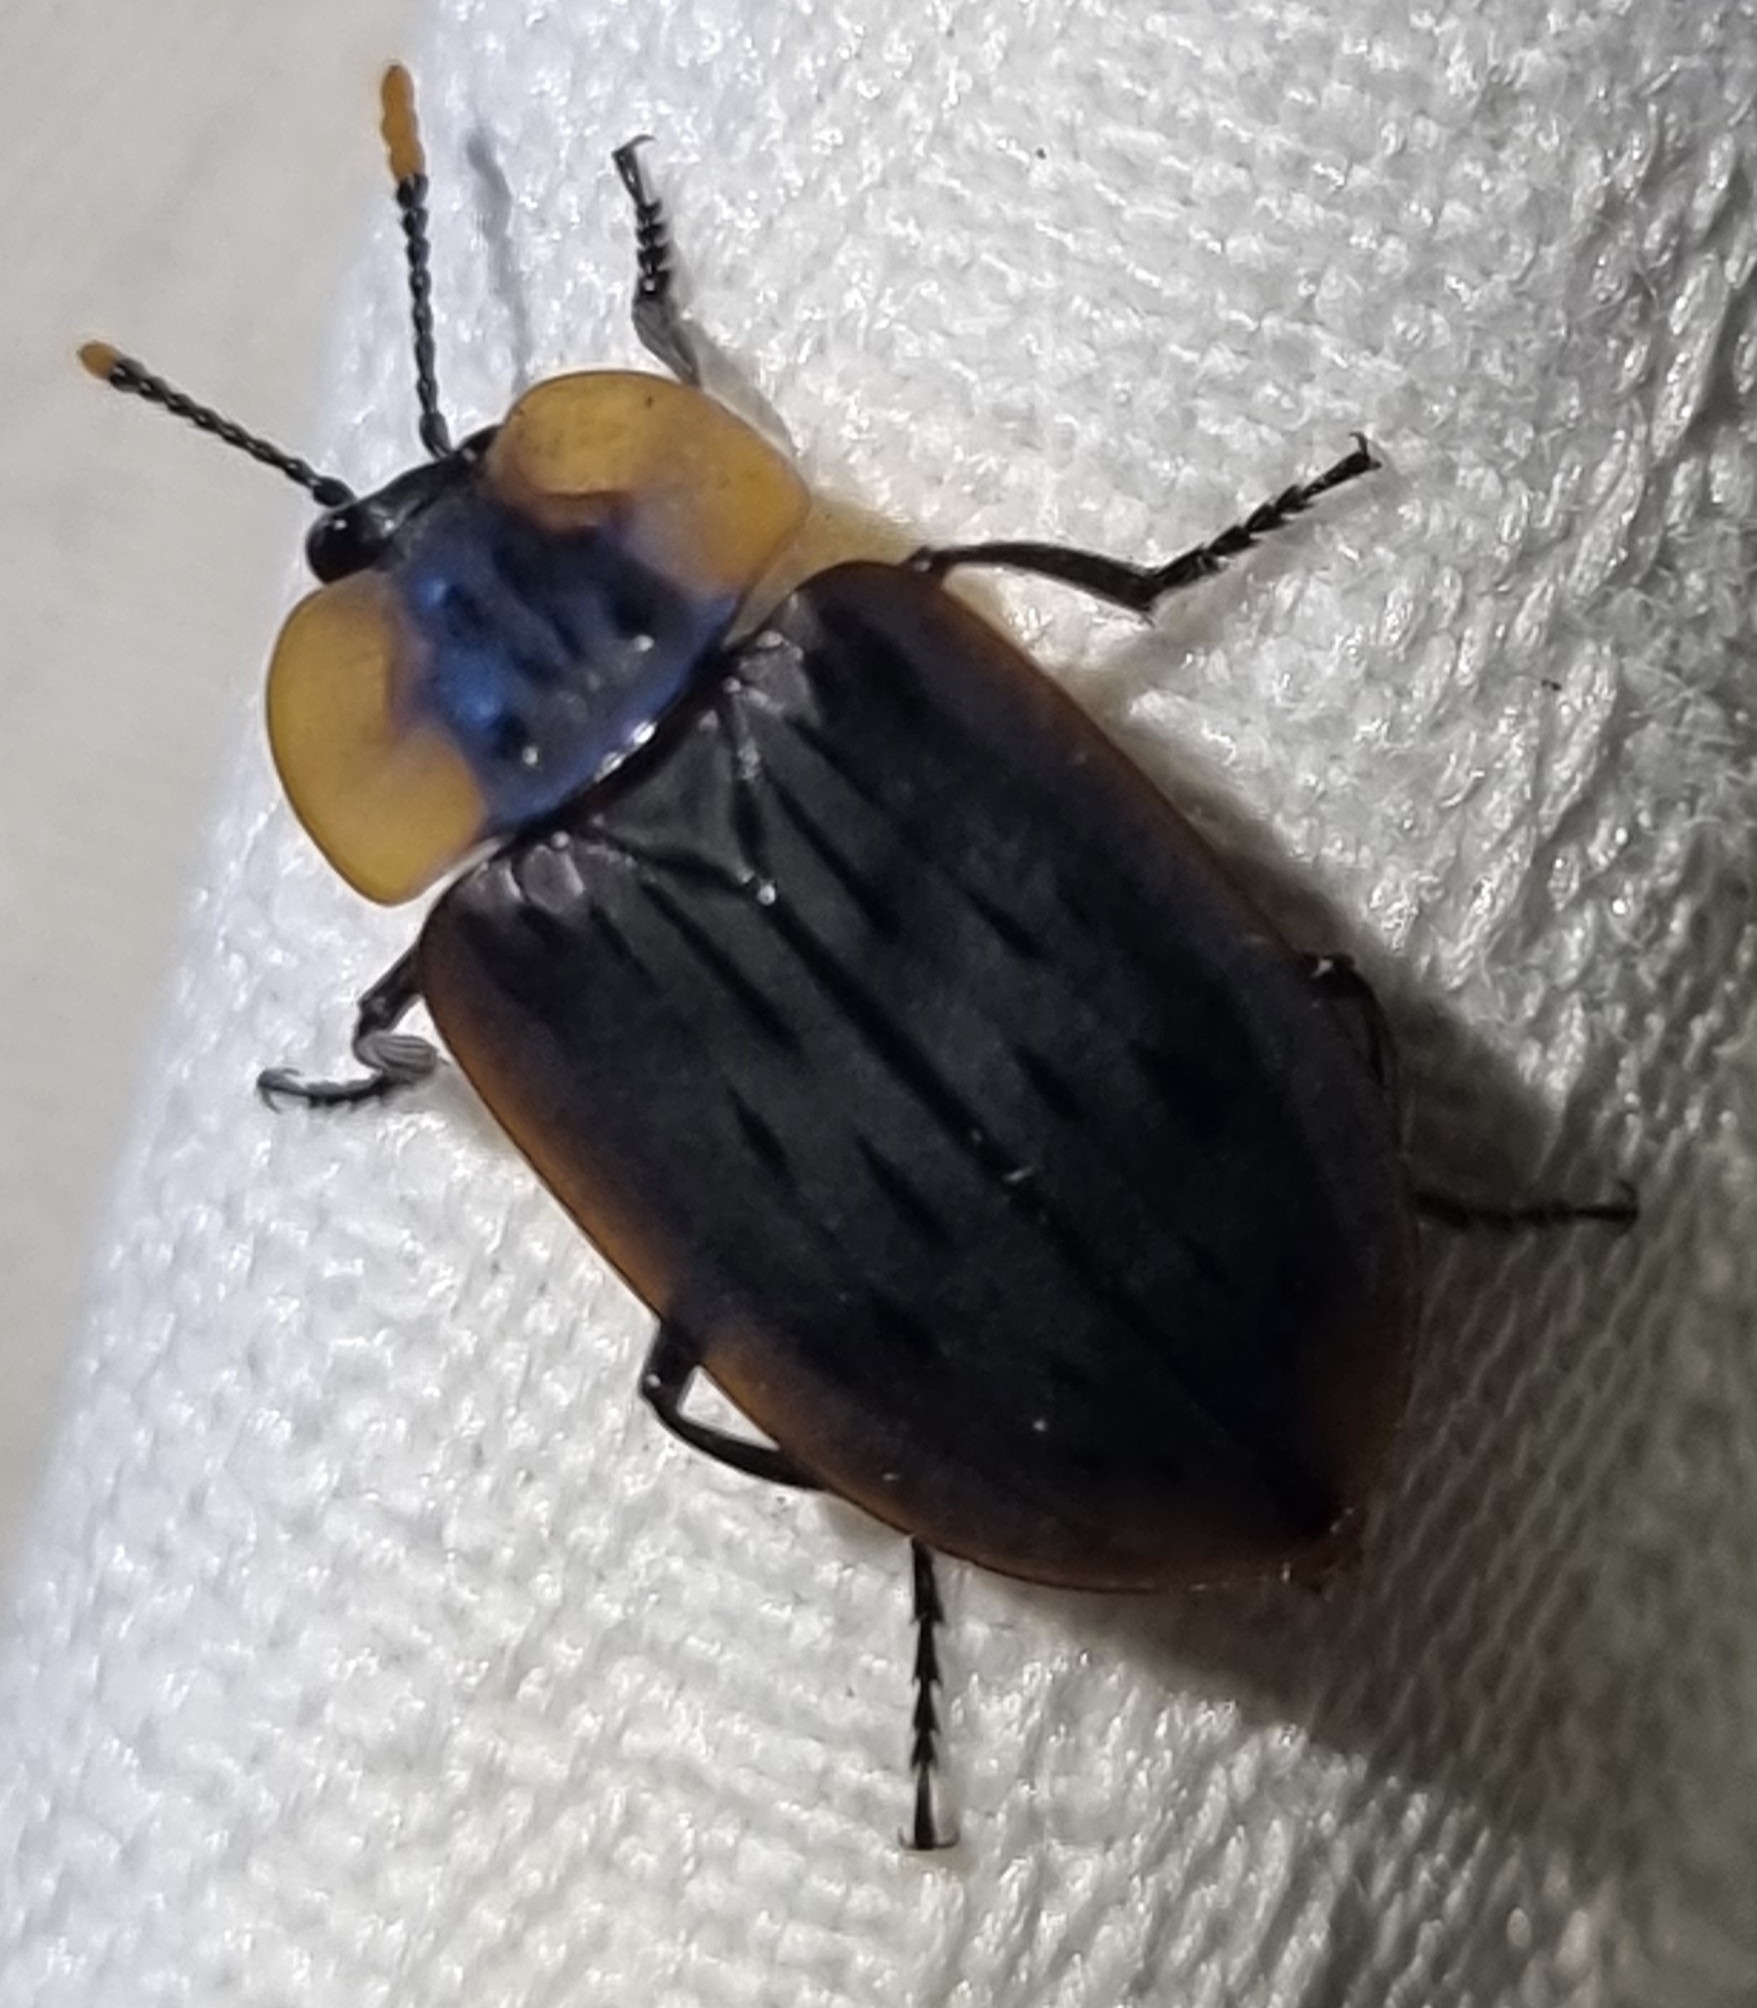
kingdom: Animalia
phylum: Arthropoda
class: Insecta
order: Coleoptera
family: Staphylinidae
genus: Ptomaphila
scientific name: Ptomaphila perlata
